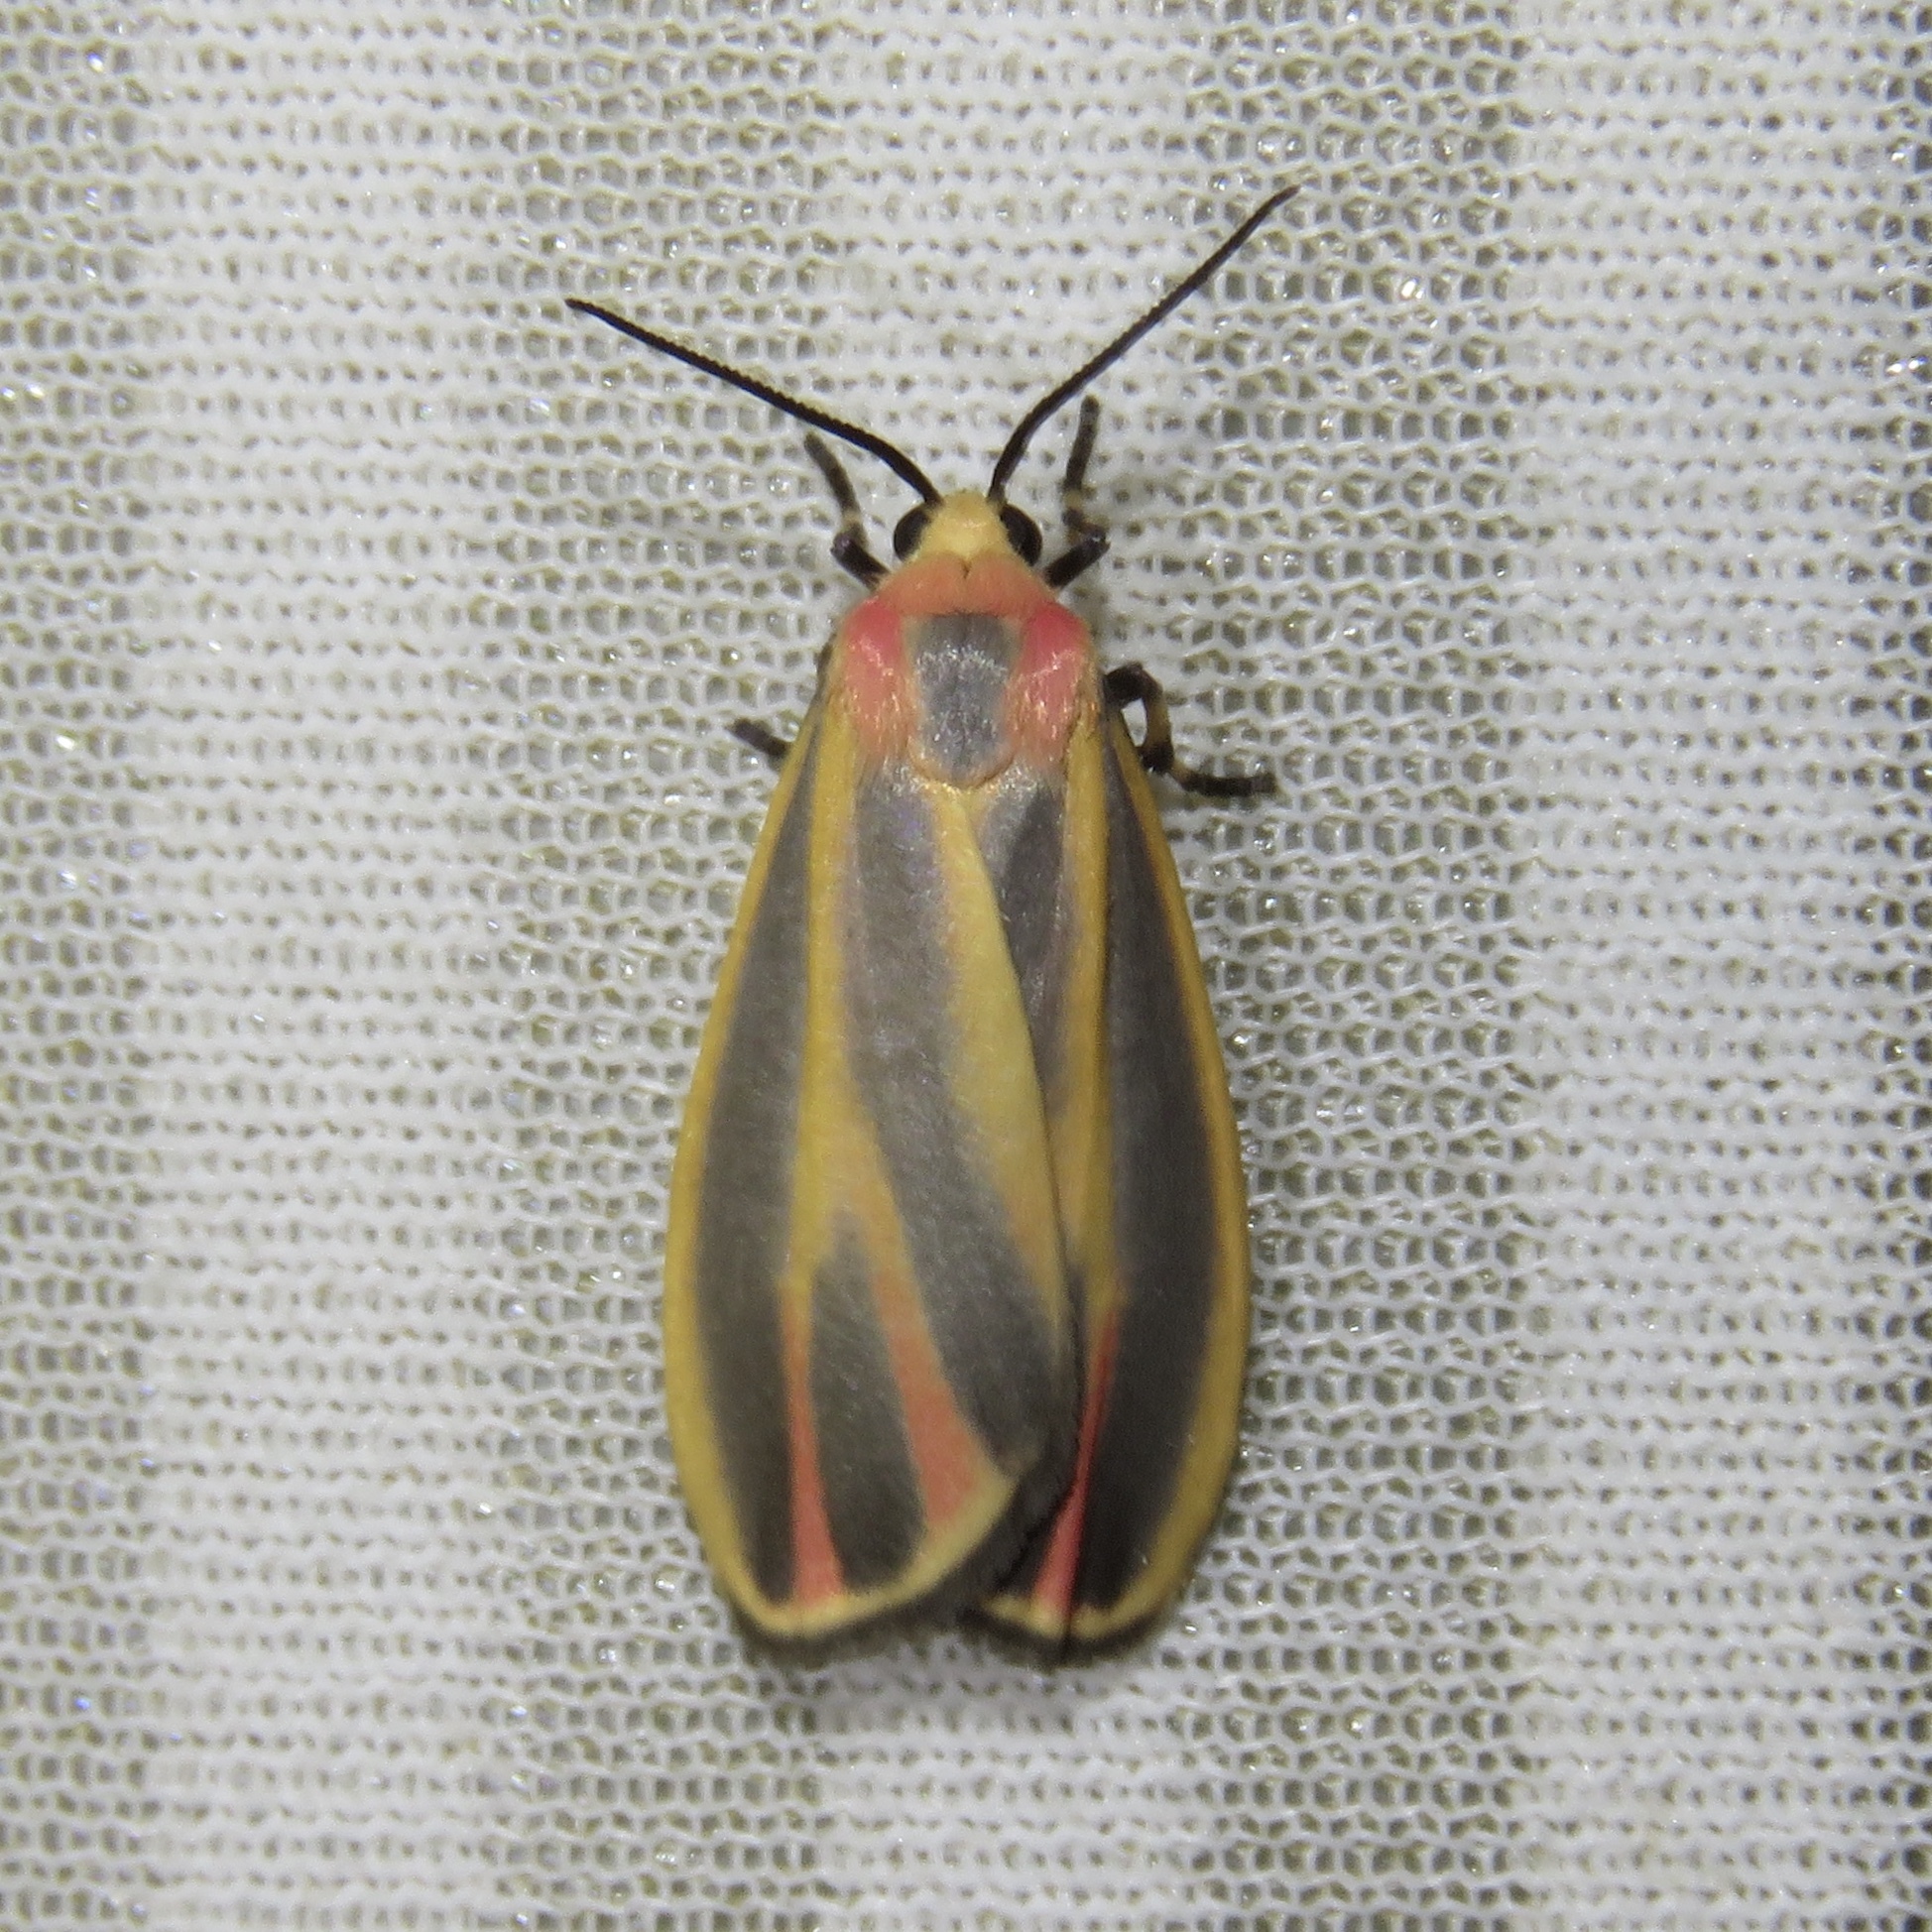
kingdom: Animalia
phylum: Arthropoda
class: Insecta
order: Lepidoptera
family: Erebidae
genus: Hypoprepia
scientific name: Hypoprepia fucosa
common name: Painted lichen moth
